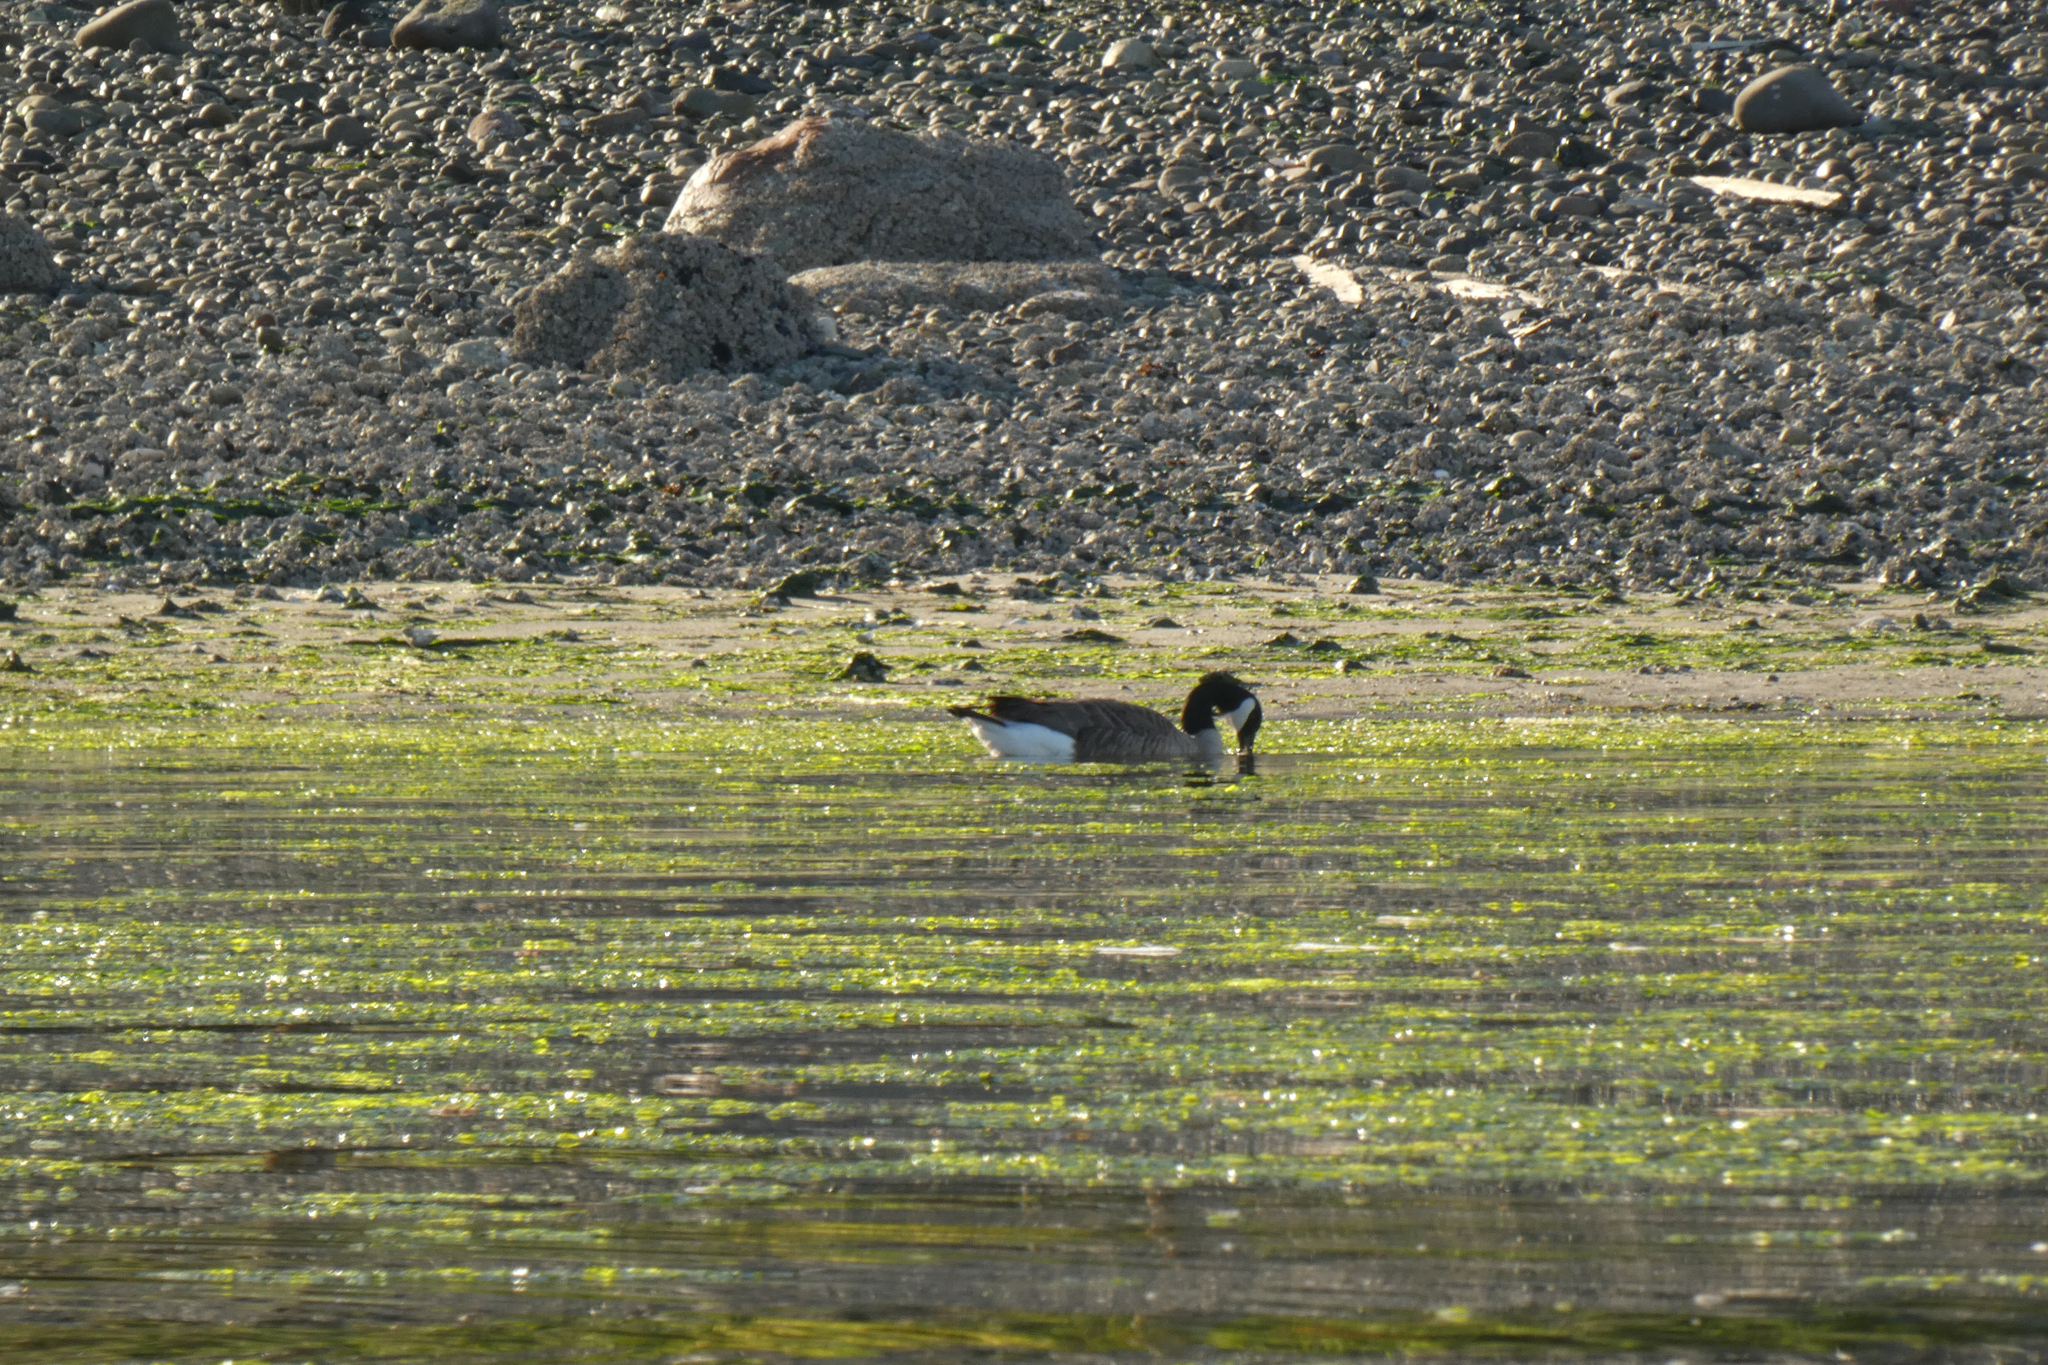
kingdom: Animalia
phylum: Chordata
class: Aves
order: Anseriformes
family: Anatidae
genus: Branta
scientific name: Branta canadensis
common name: Canada goose
